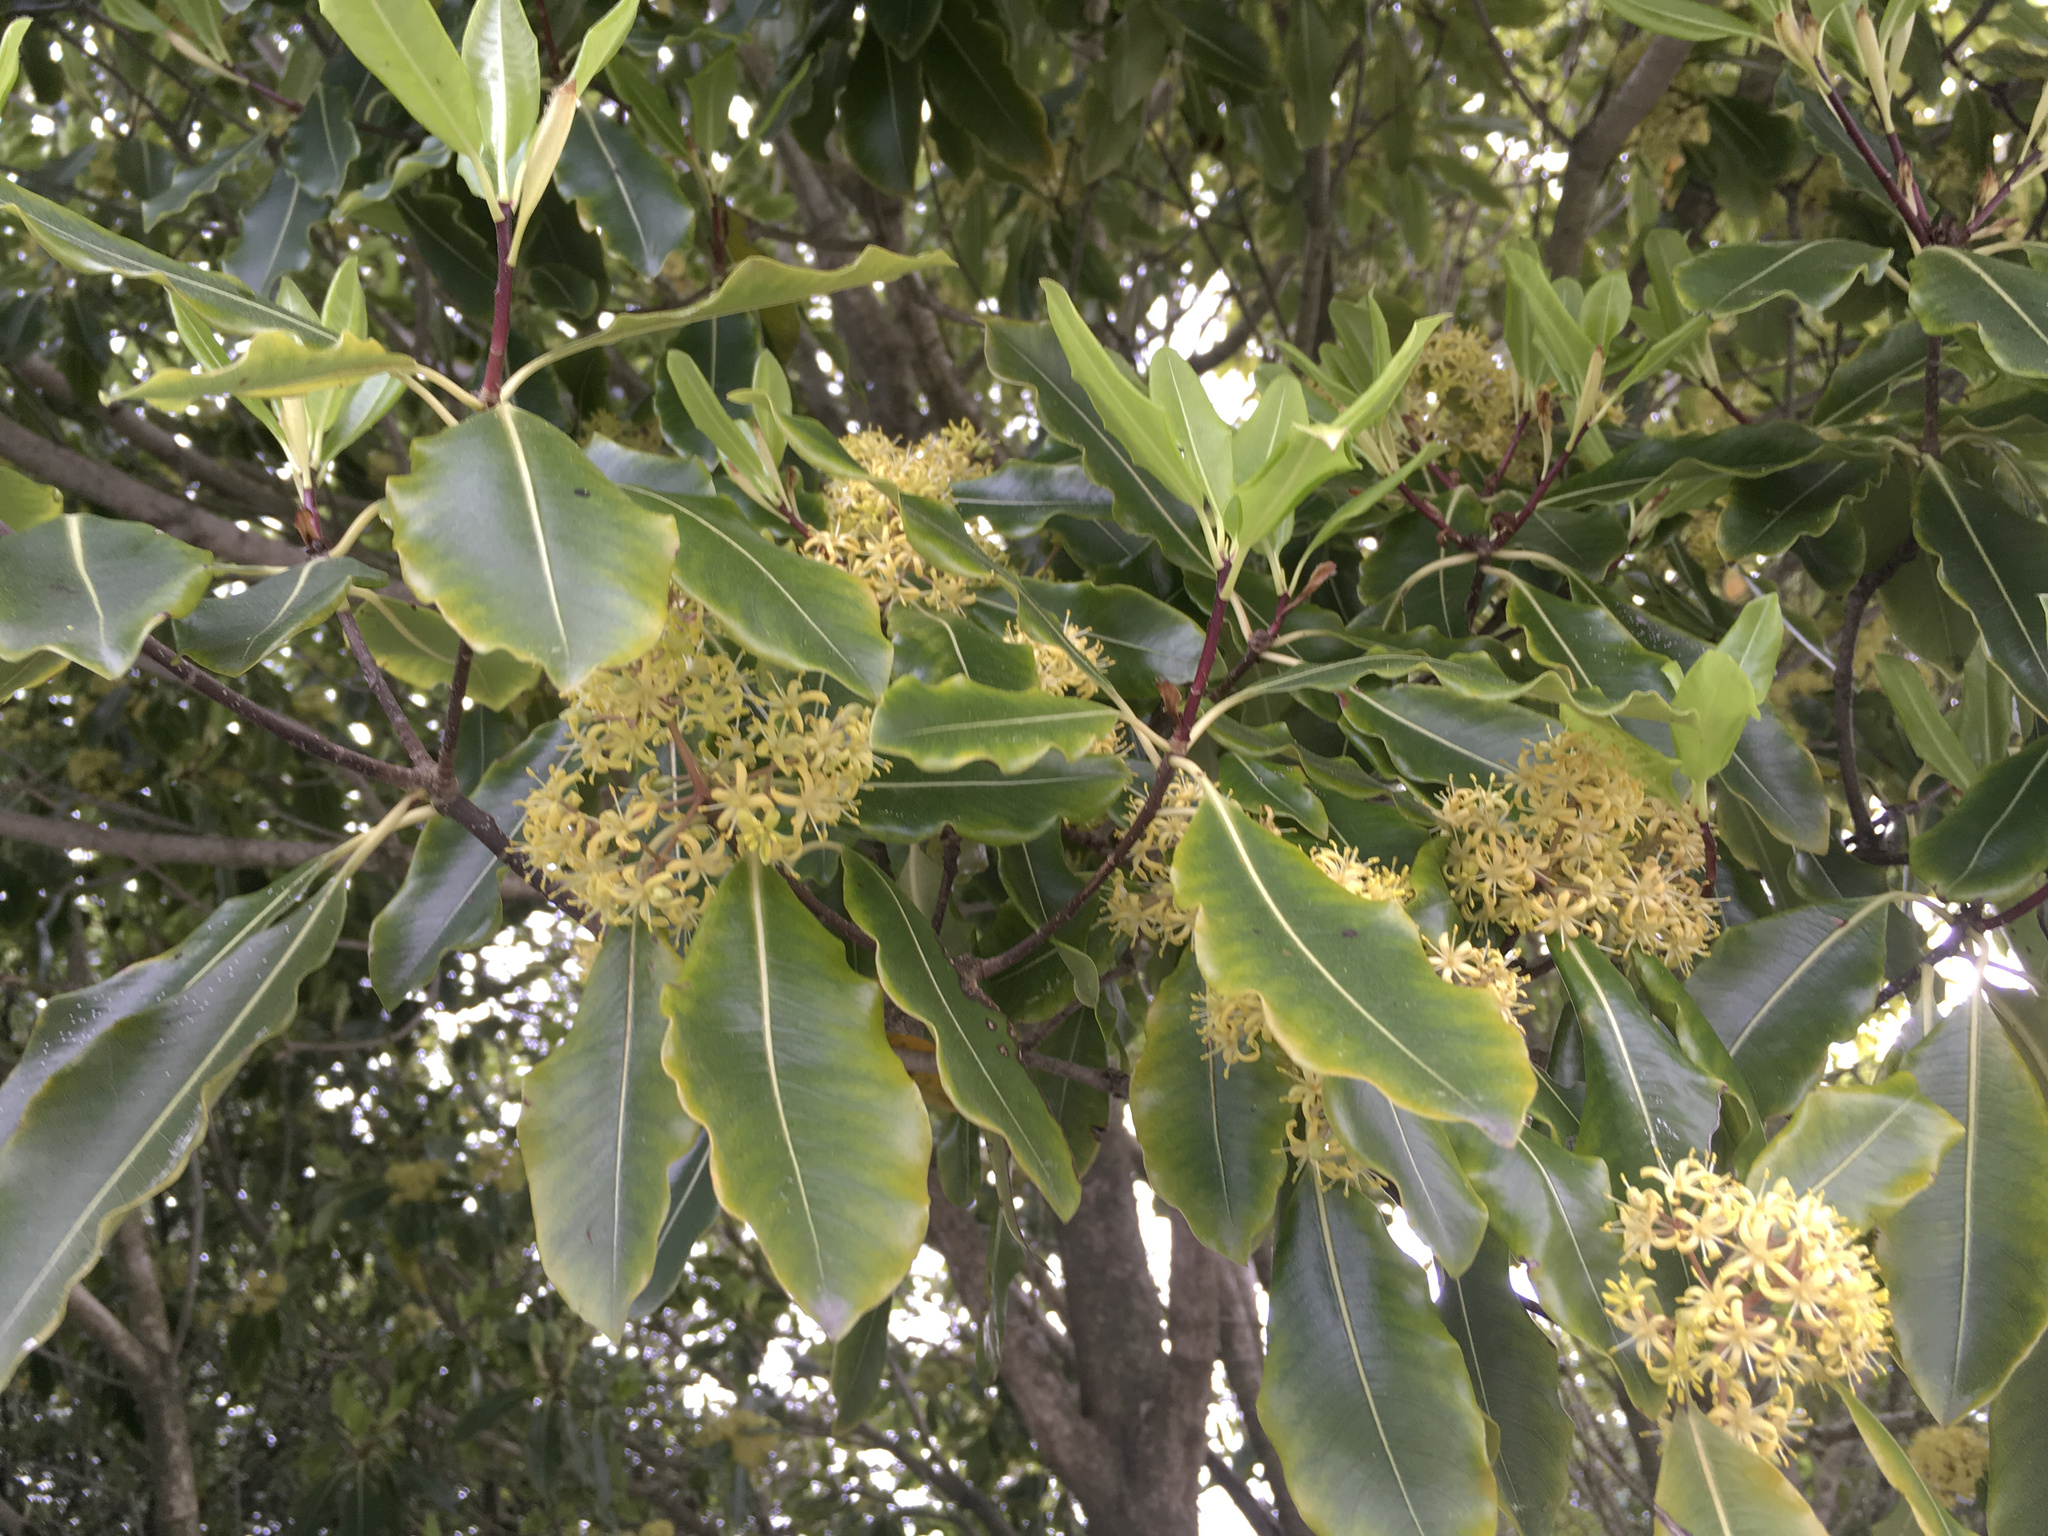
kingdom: Plantae
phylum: Tracheophyta
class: Magnoliopsida
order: Apiales
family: Pittosporaceae
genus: Pittosporum
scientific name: Pittosporum eugenioides
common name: Lemonwood
